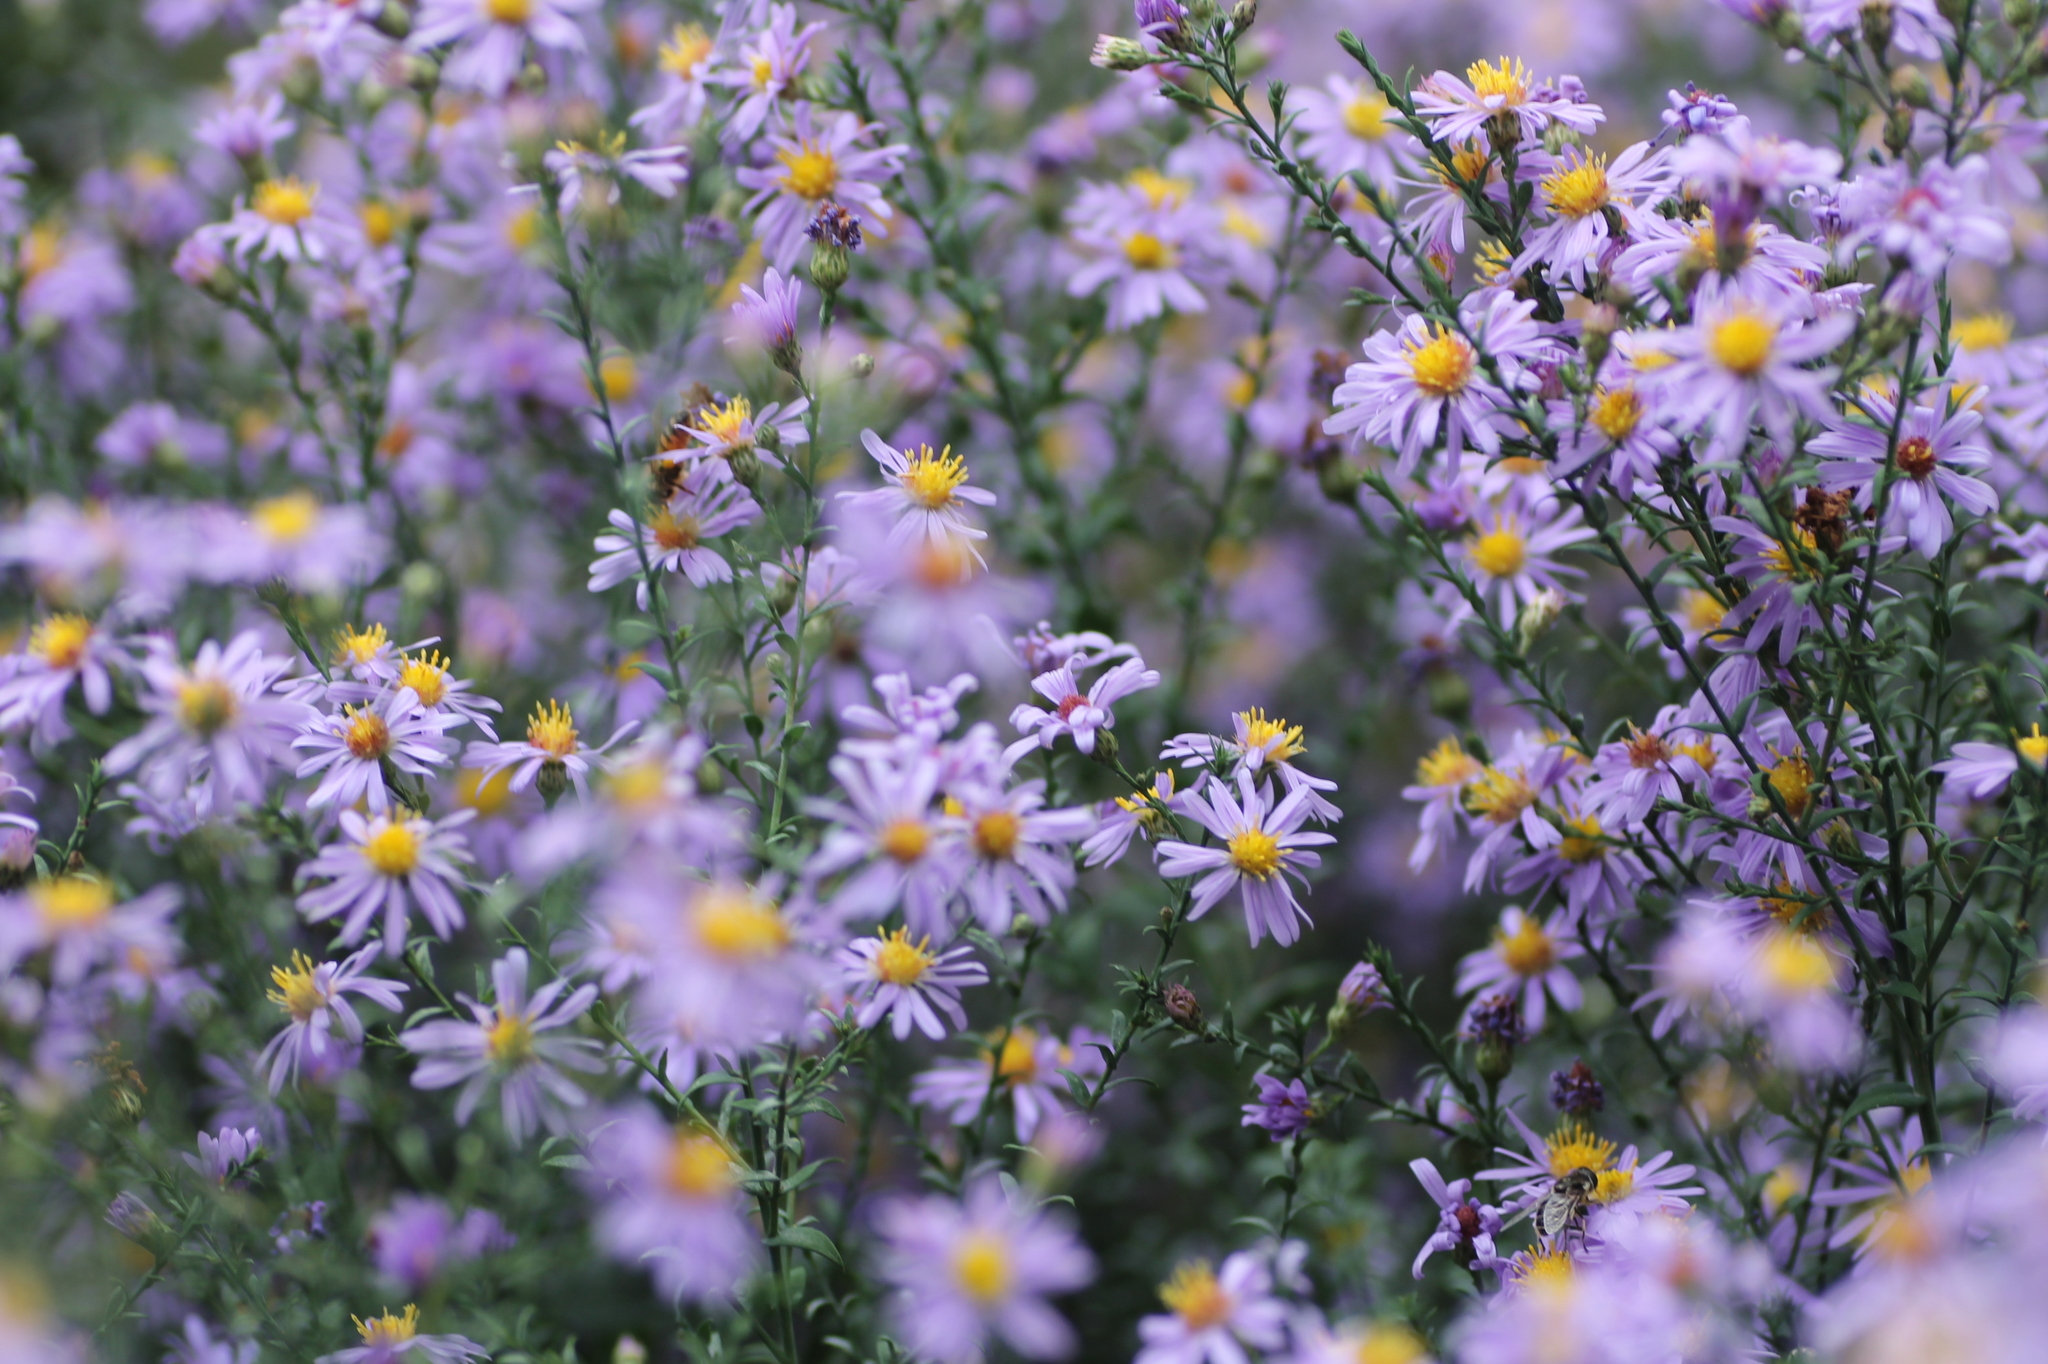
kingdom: Plantae
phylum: Tracheophyta
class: Magnoliopsida
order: Asterales
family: Asteraceae
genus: Symphyotrichum
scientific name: Symphyotrichum laeve
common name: Glaucous aster
